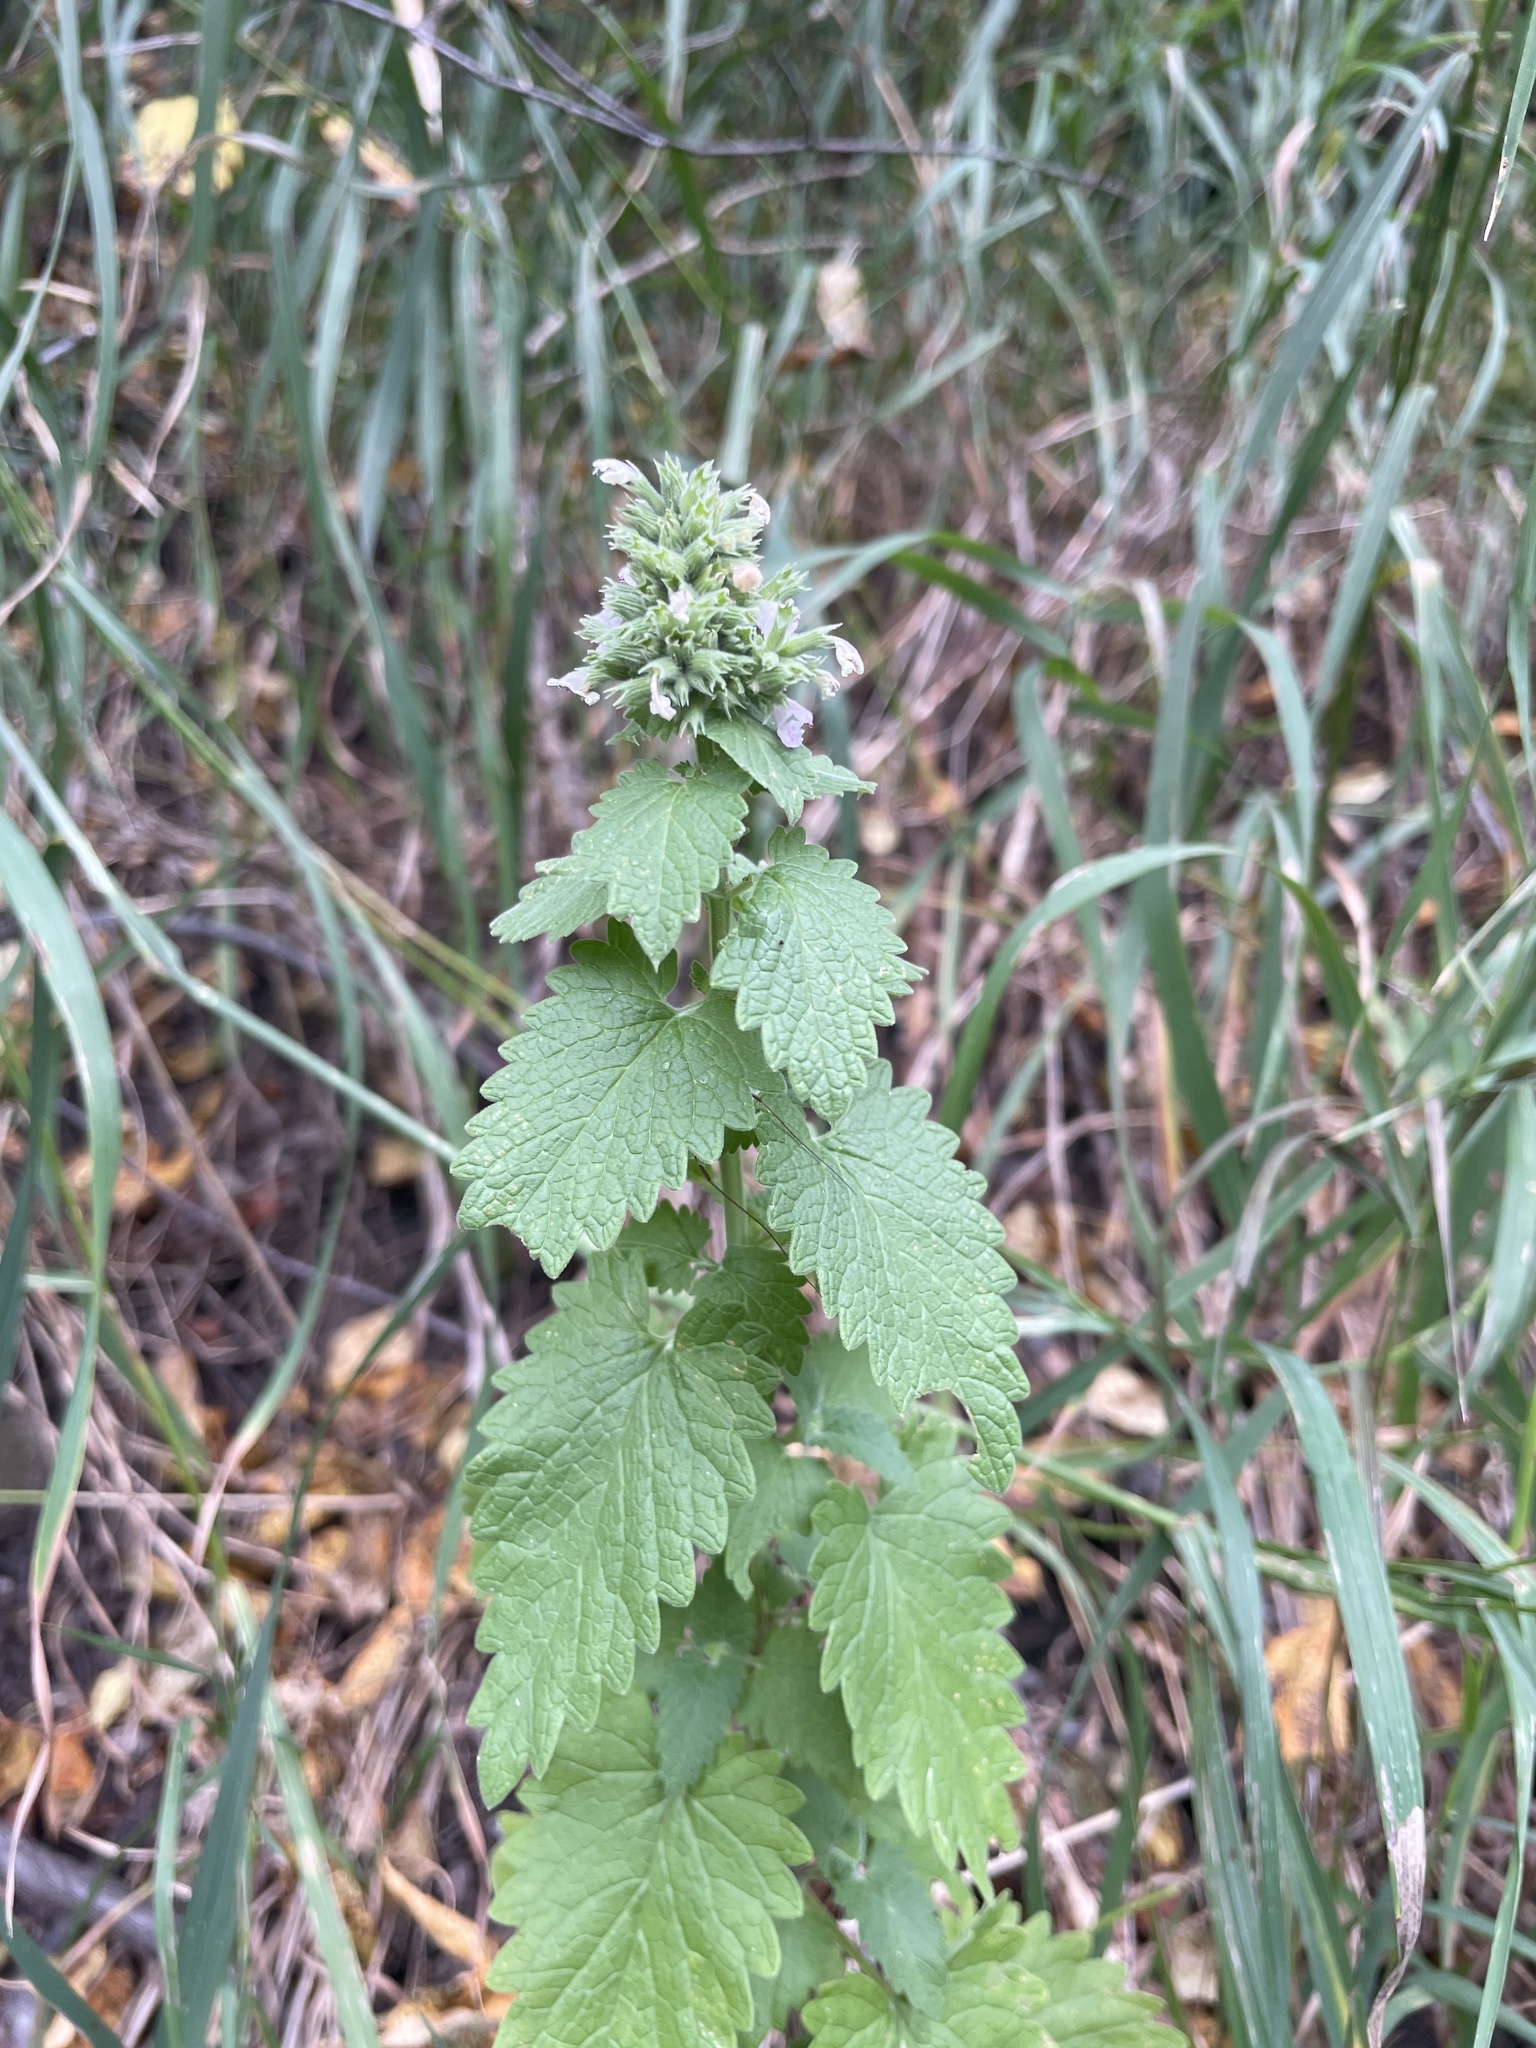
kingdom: Plantae
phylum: Tracheophyta
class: Magnoliopsida
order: Lamiales
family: Lamiaceae
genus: Nepeta
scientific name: Nepeta cataria
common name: Catnip
